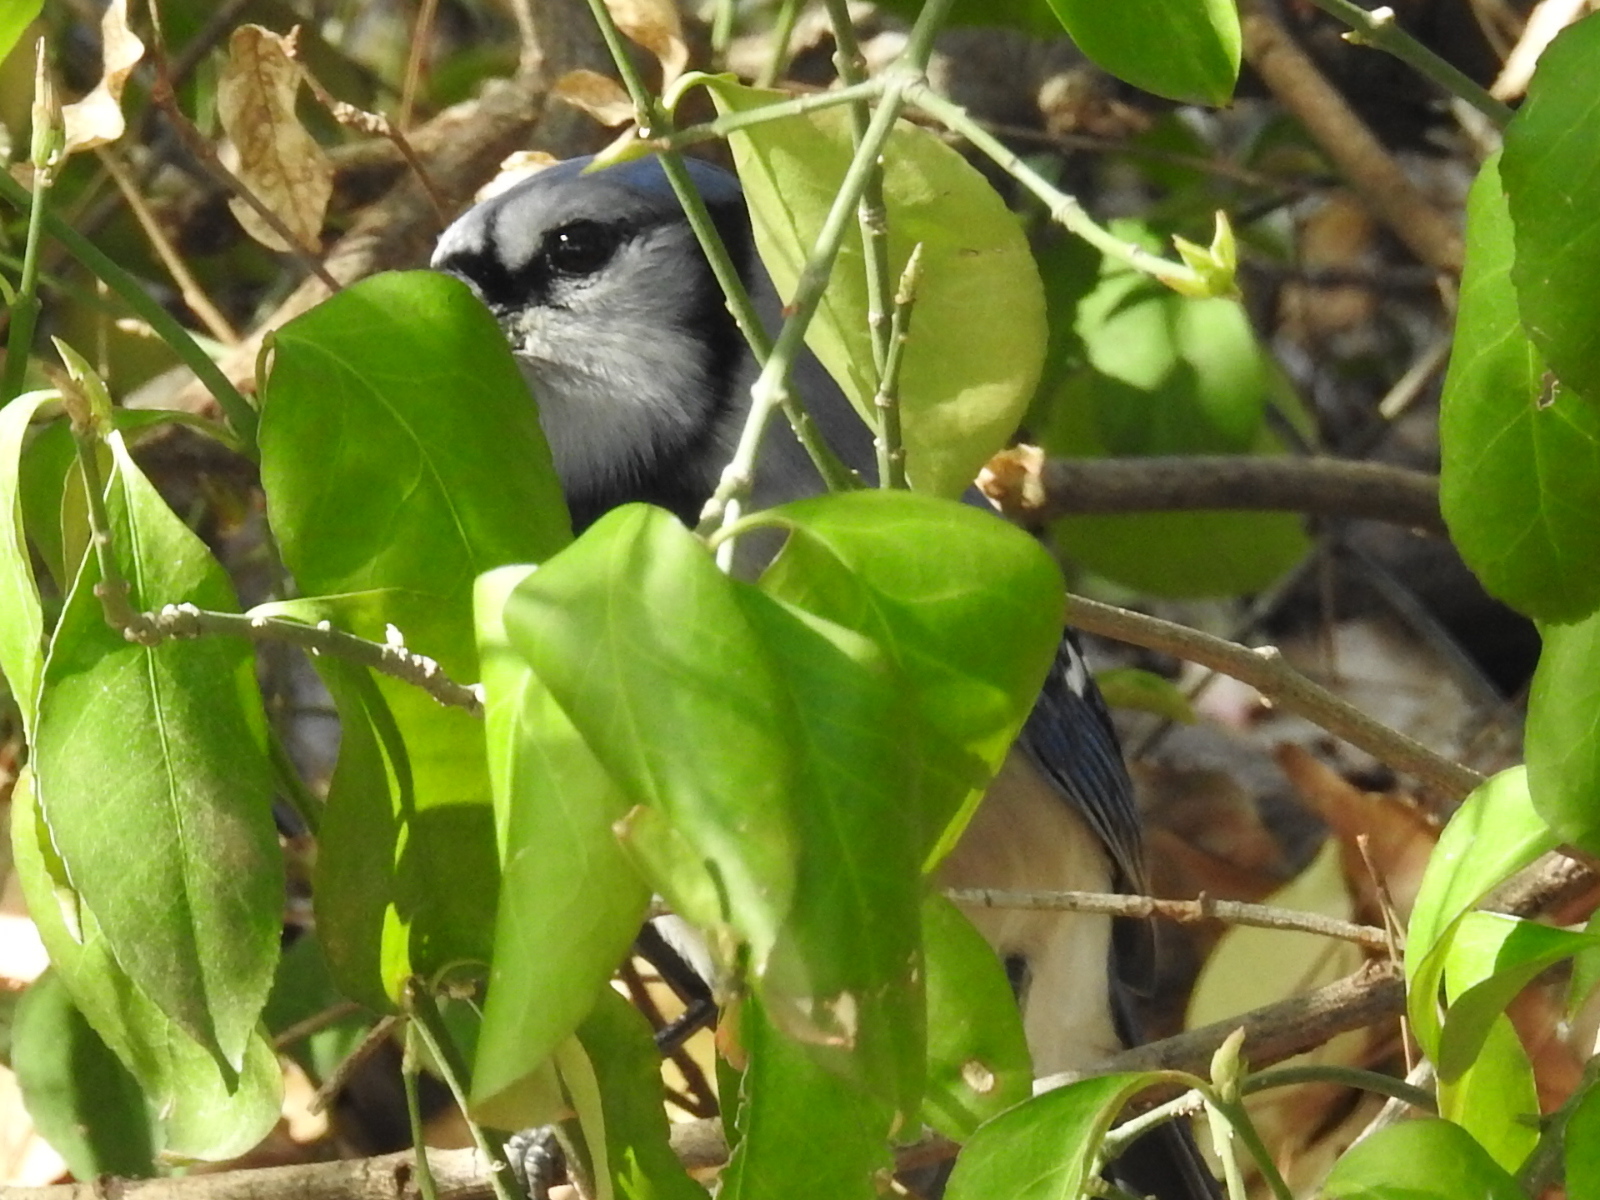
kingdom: Animalia
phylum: Chordata
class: Aves
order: Passeriformes
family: Corvidae
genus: Cyanocitta
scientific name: Cyanocitta cristata
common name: Blue jay
